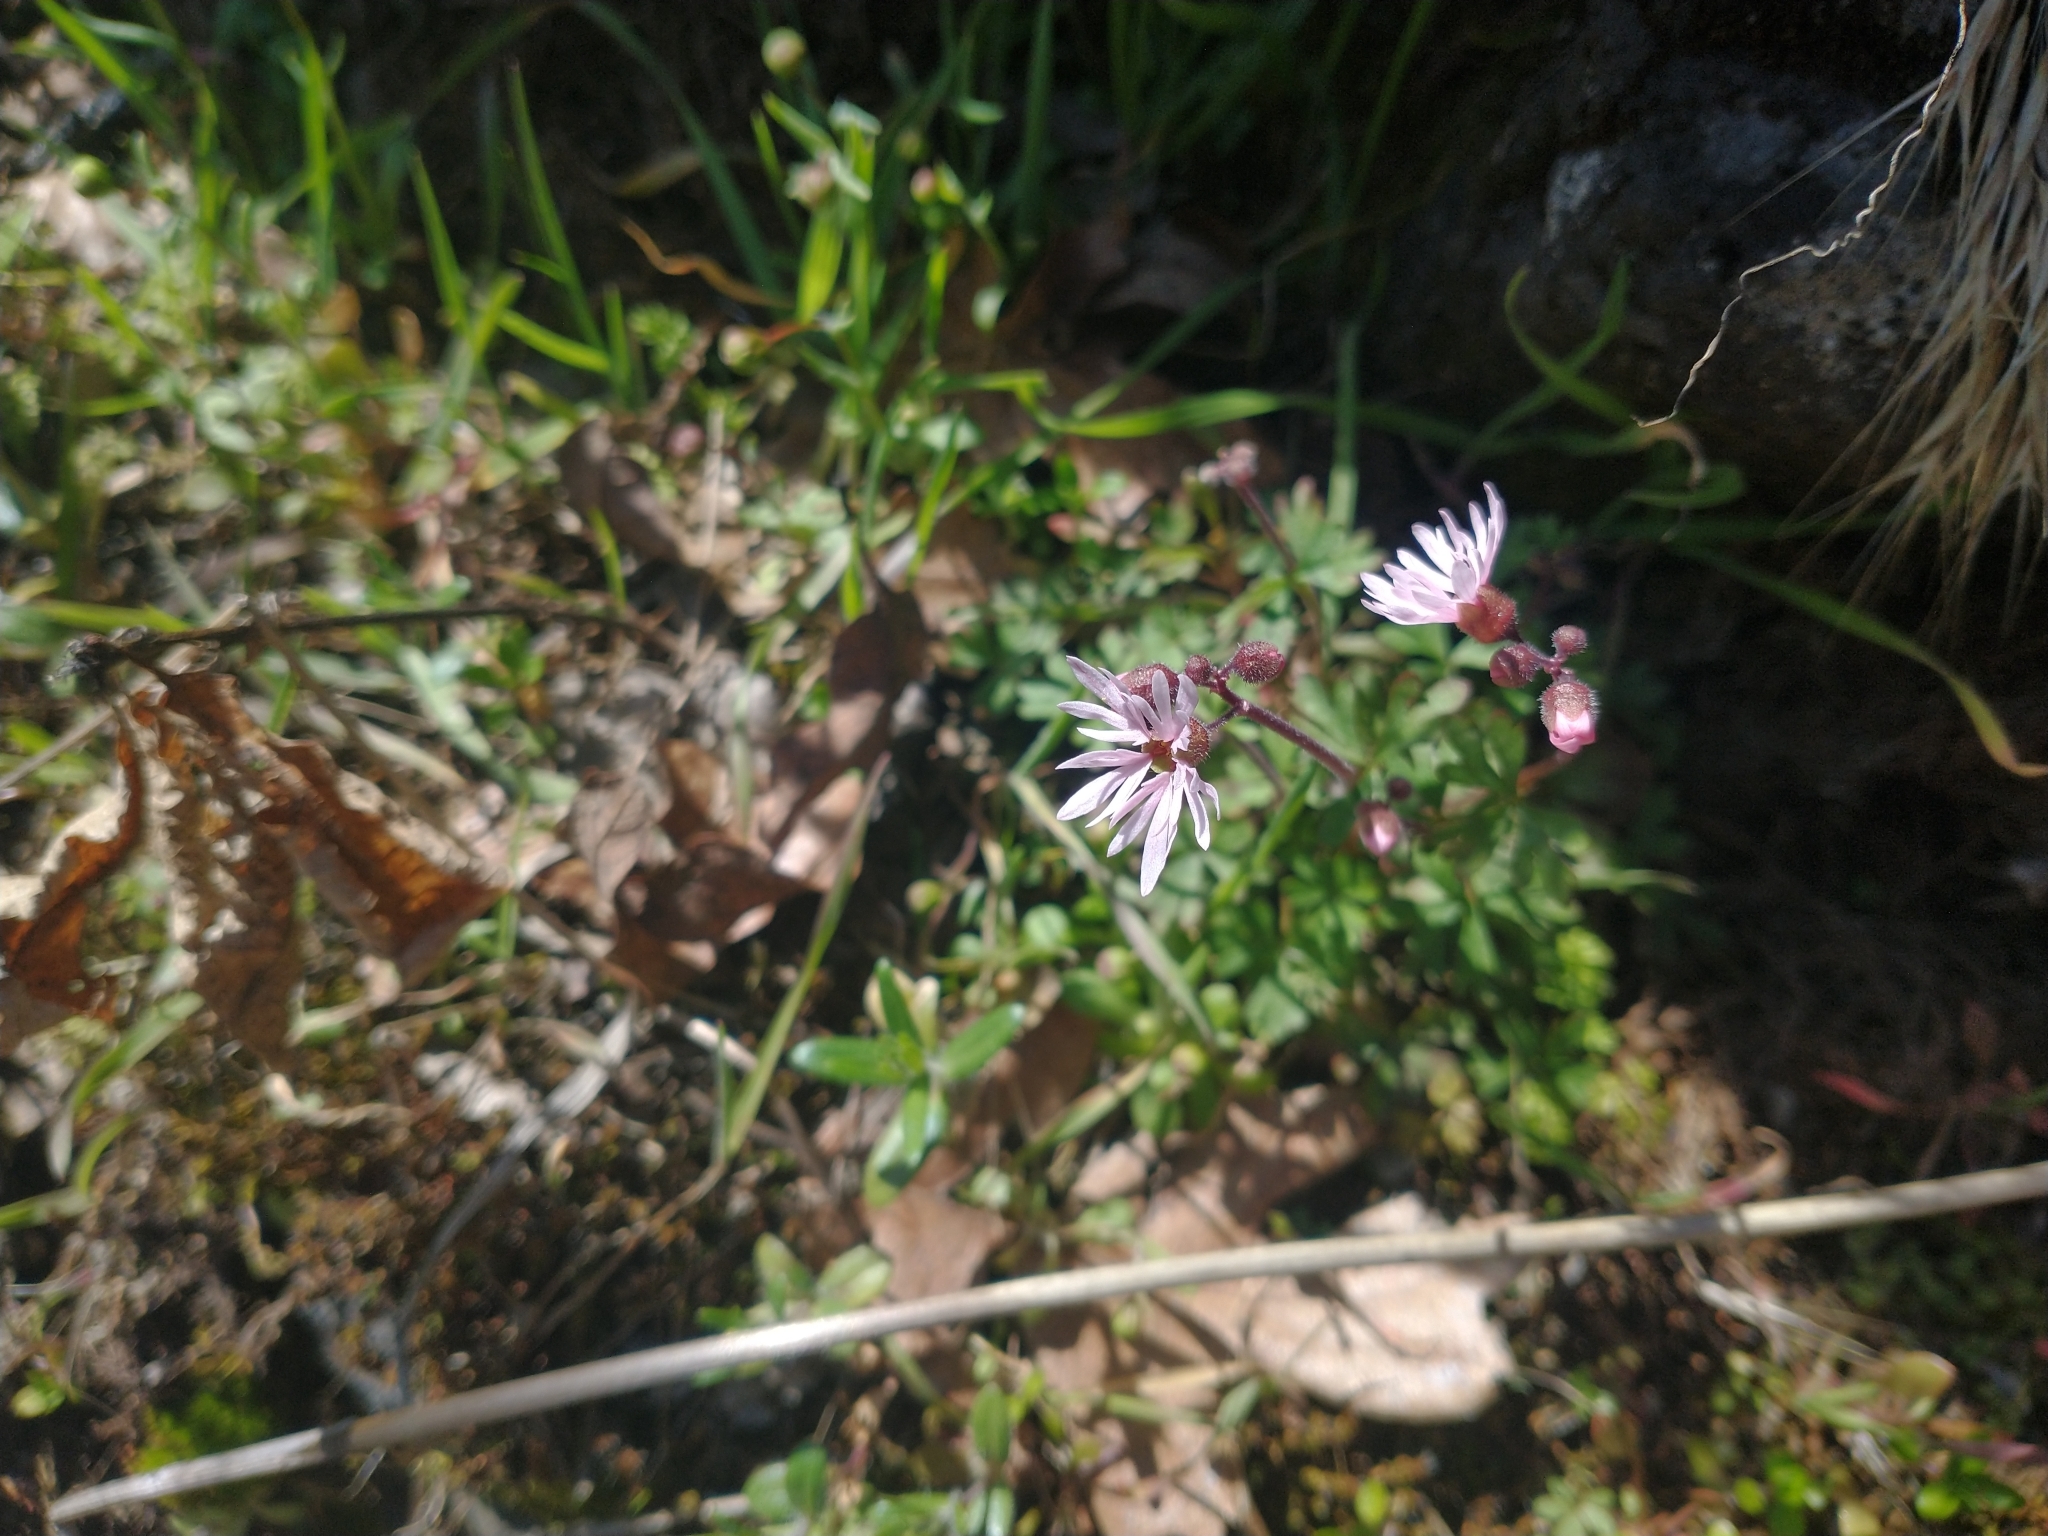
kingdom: Plantae
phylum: Tracheophyta
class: Magnoliopsida
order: Saxifragales
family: Saxifragaceae
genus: Lithophragma
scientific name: Lithophragma glabrum
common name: Bulbous prairie-star
